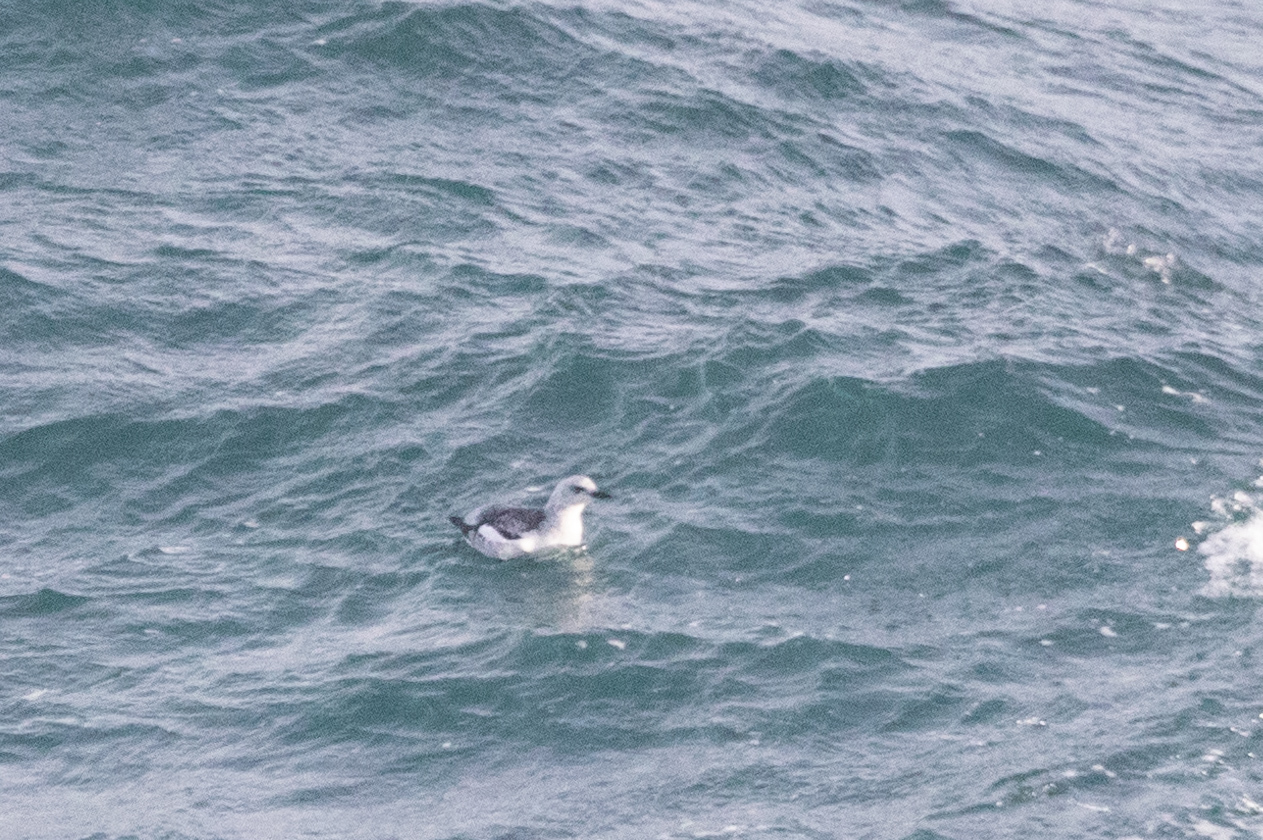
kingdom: Animalia
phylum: Chordata
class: Aves
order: Charadriiformes
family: Alcidae
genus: Cepphus
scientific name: Cepphus grylle
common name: Black guillemot
